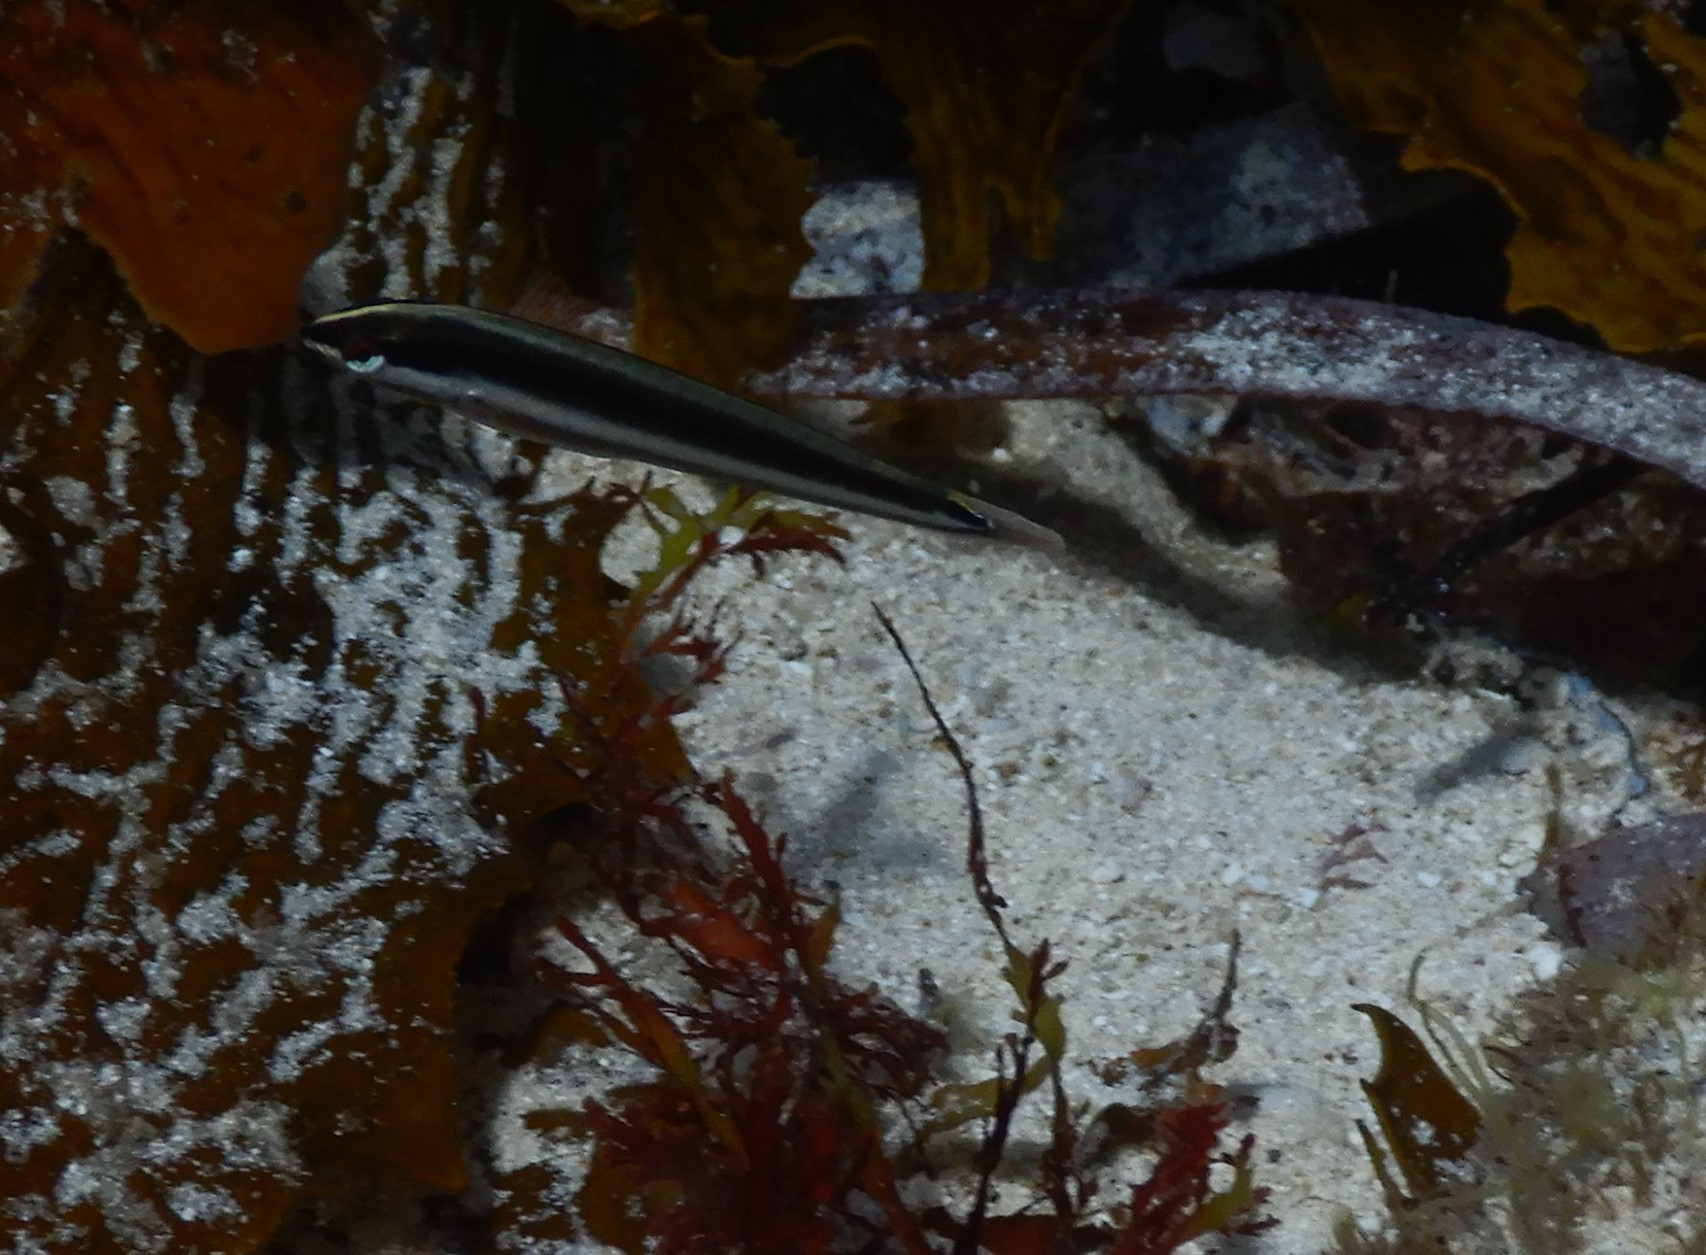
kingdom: Animalia
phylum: Chordata
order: Perciformes
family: Labridae
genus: Coris
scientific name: Coris auricularis
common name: Western king wrasse
